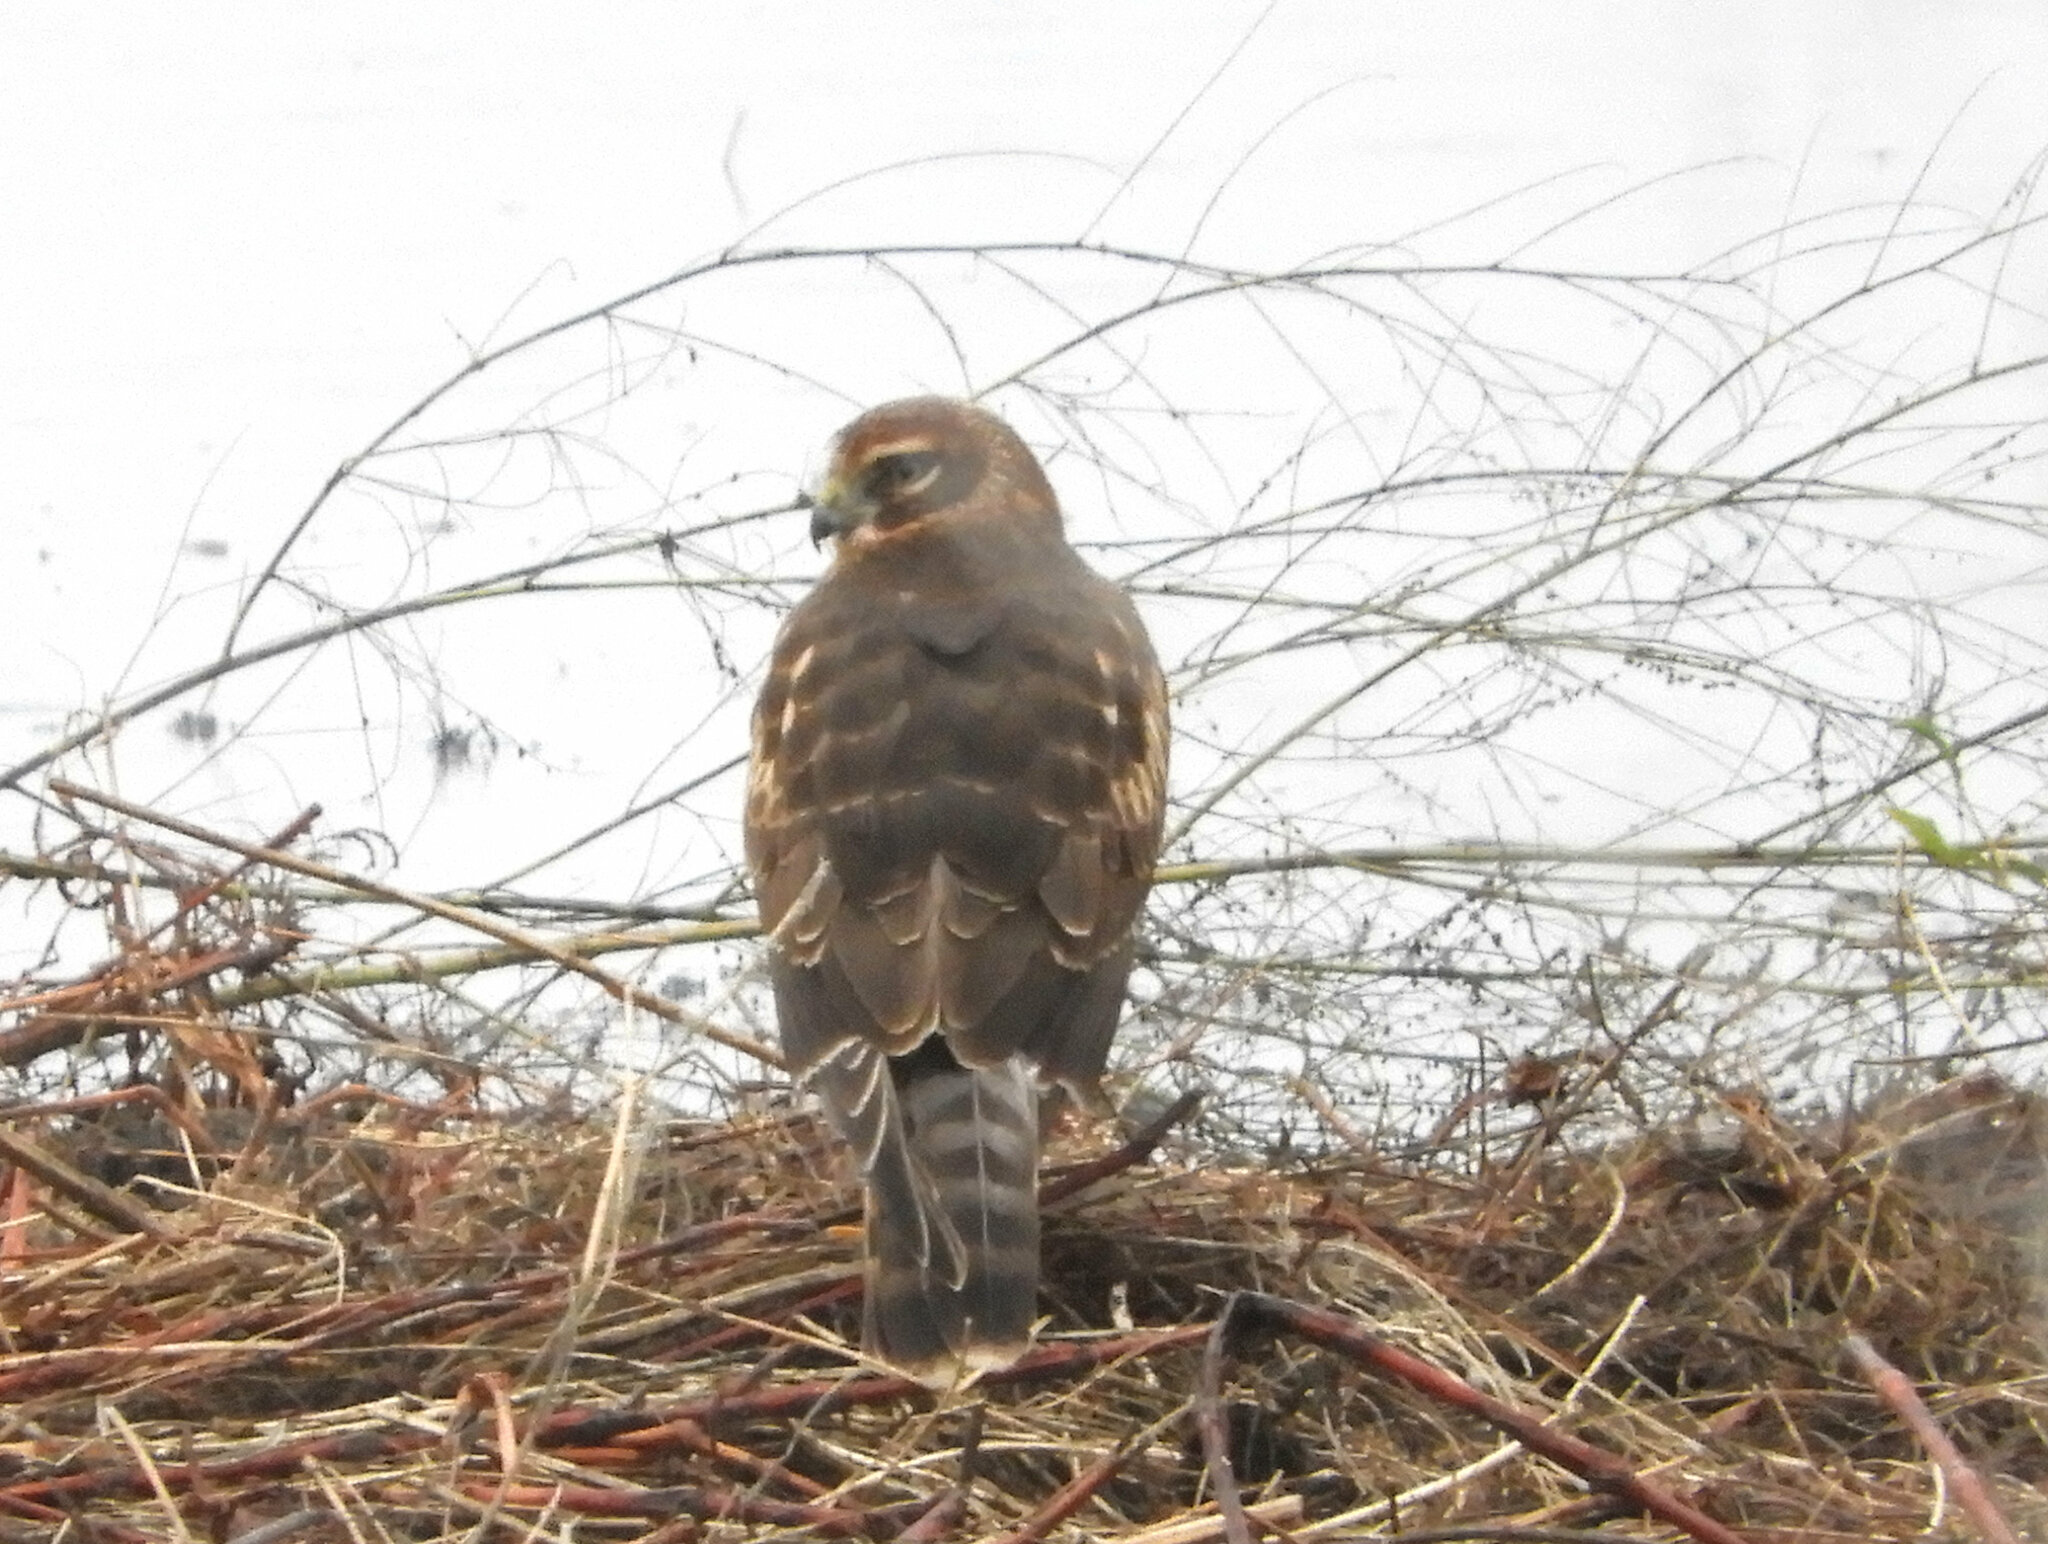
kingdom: Animalia
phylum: Chordata
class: Aves
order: Accipitriformes
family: Accipitridae
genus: Circus
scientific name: Circus cyaneus
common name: Hen harrier
